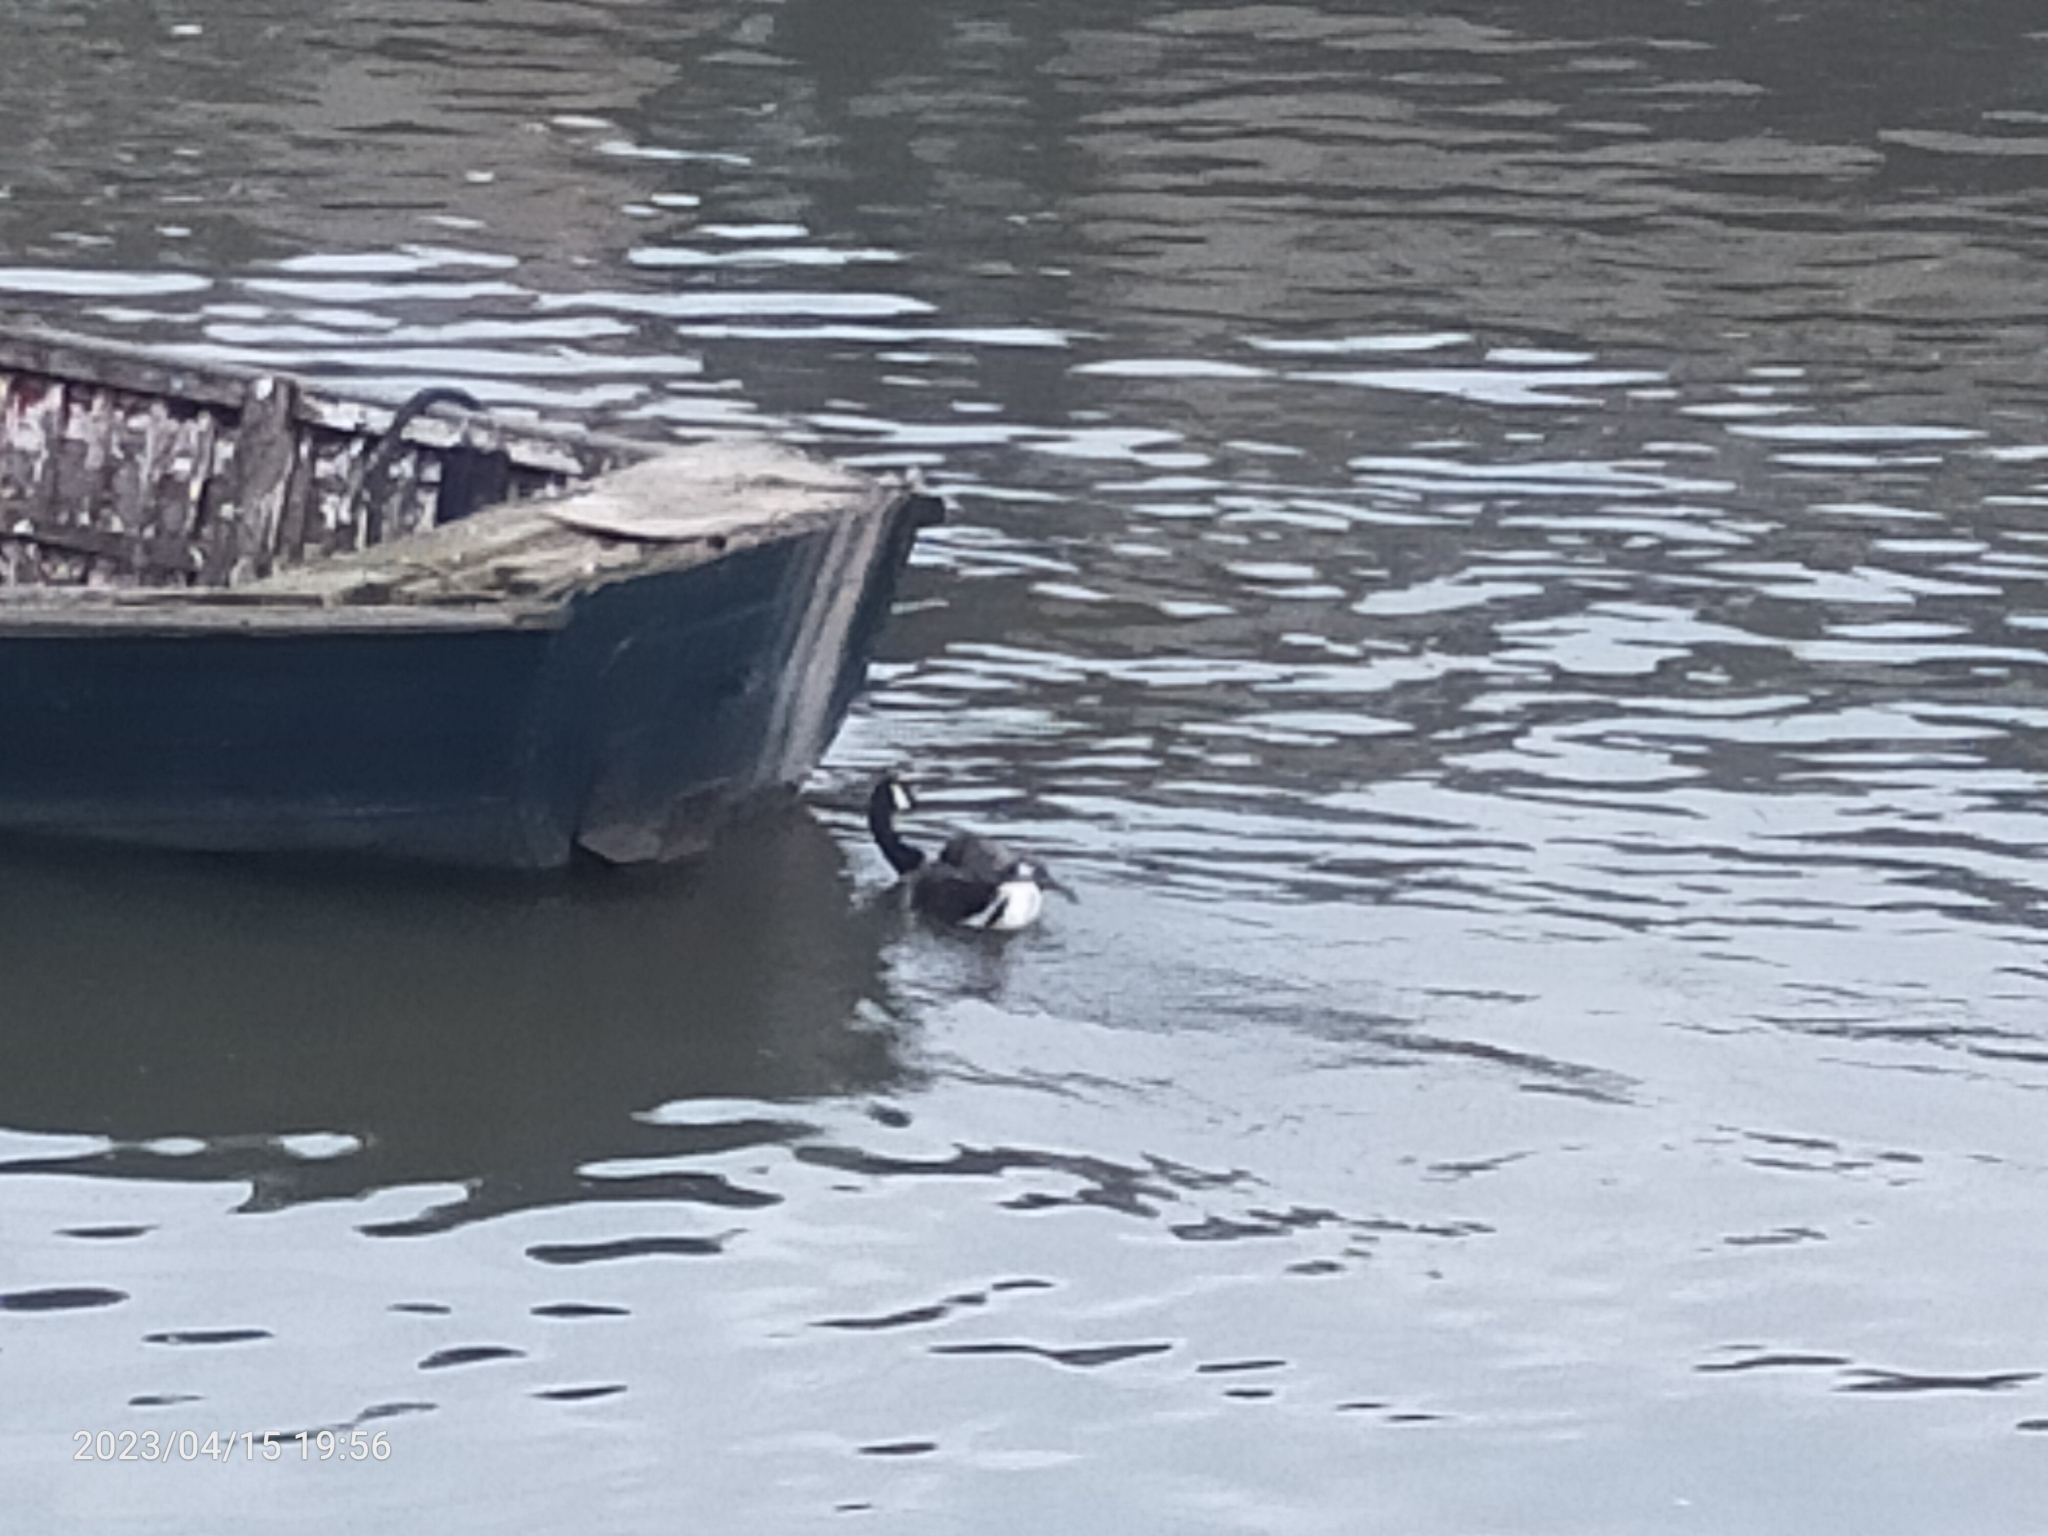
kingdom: Animalia
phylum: Chordata
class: Aves
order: Anseriformes
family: Anatidae
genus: Branta
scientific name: Branta canadensis
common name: Canada goose
